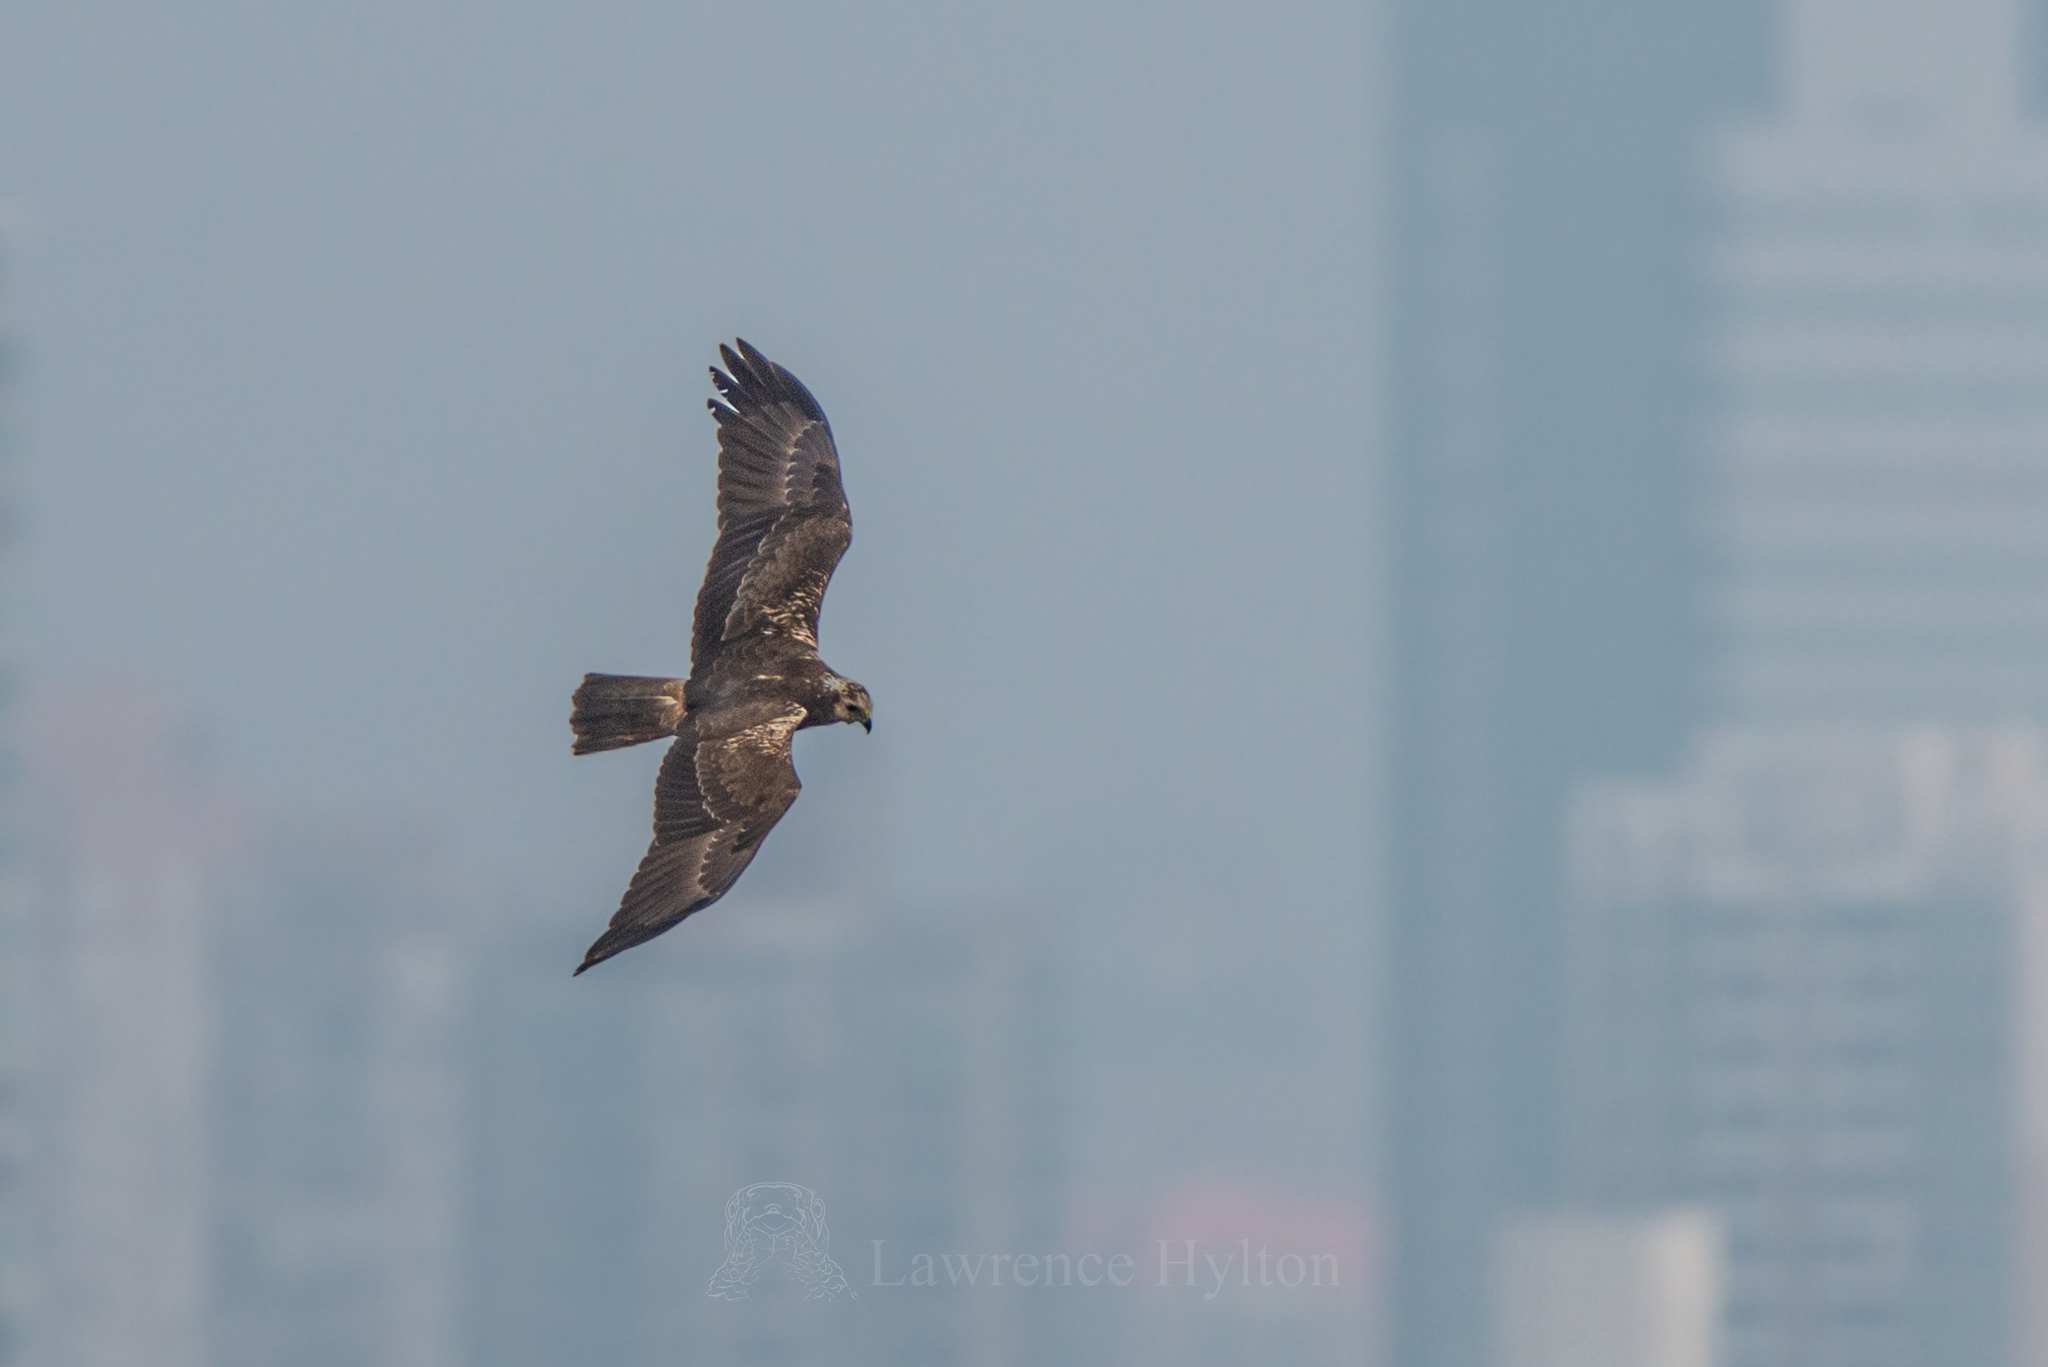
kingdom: Animalia
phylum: Chordata
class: Aves
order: Accipitriformes
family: Accipitridae
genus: Circus
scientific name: Circus spilonotus
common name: Eastern marsh-harrier
